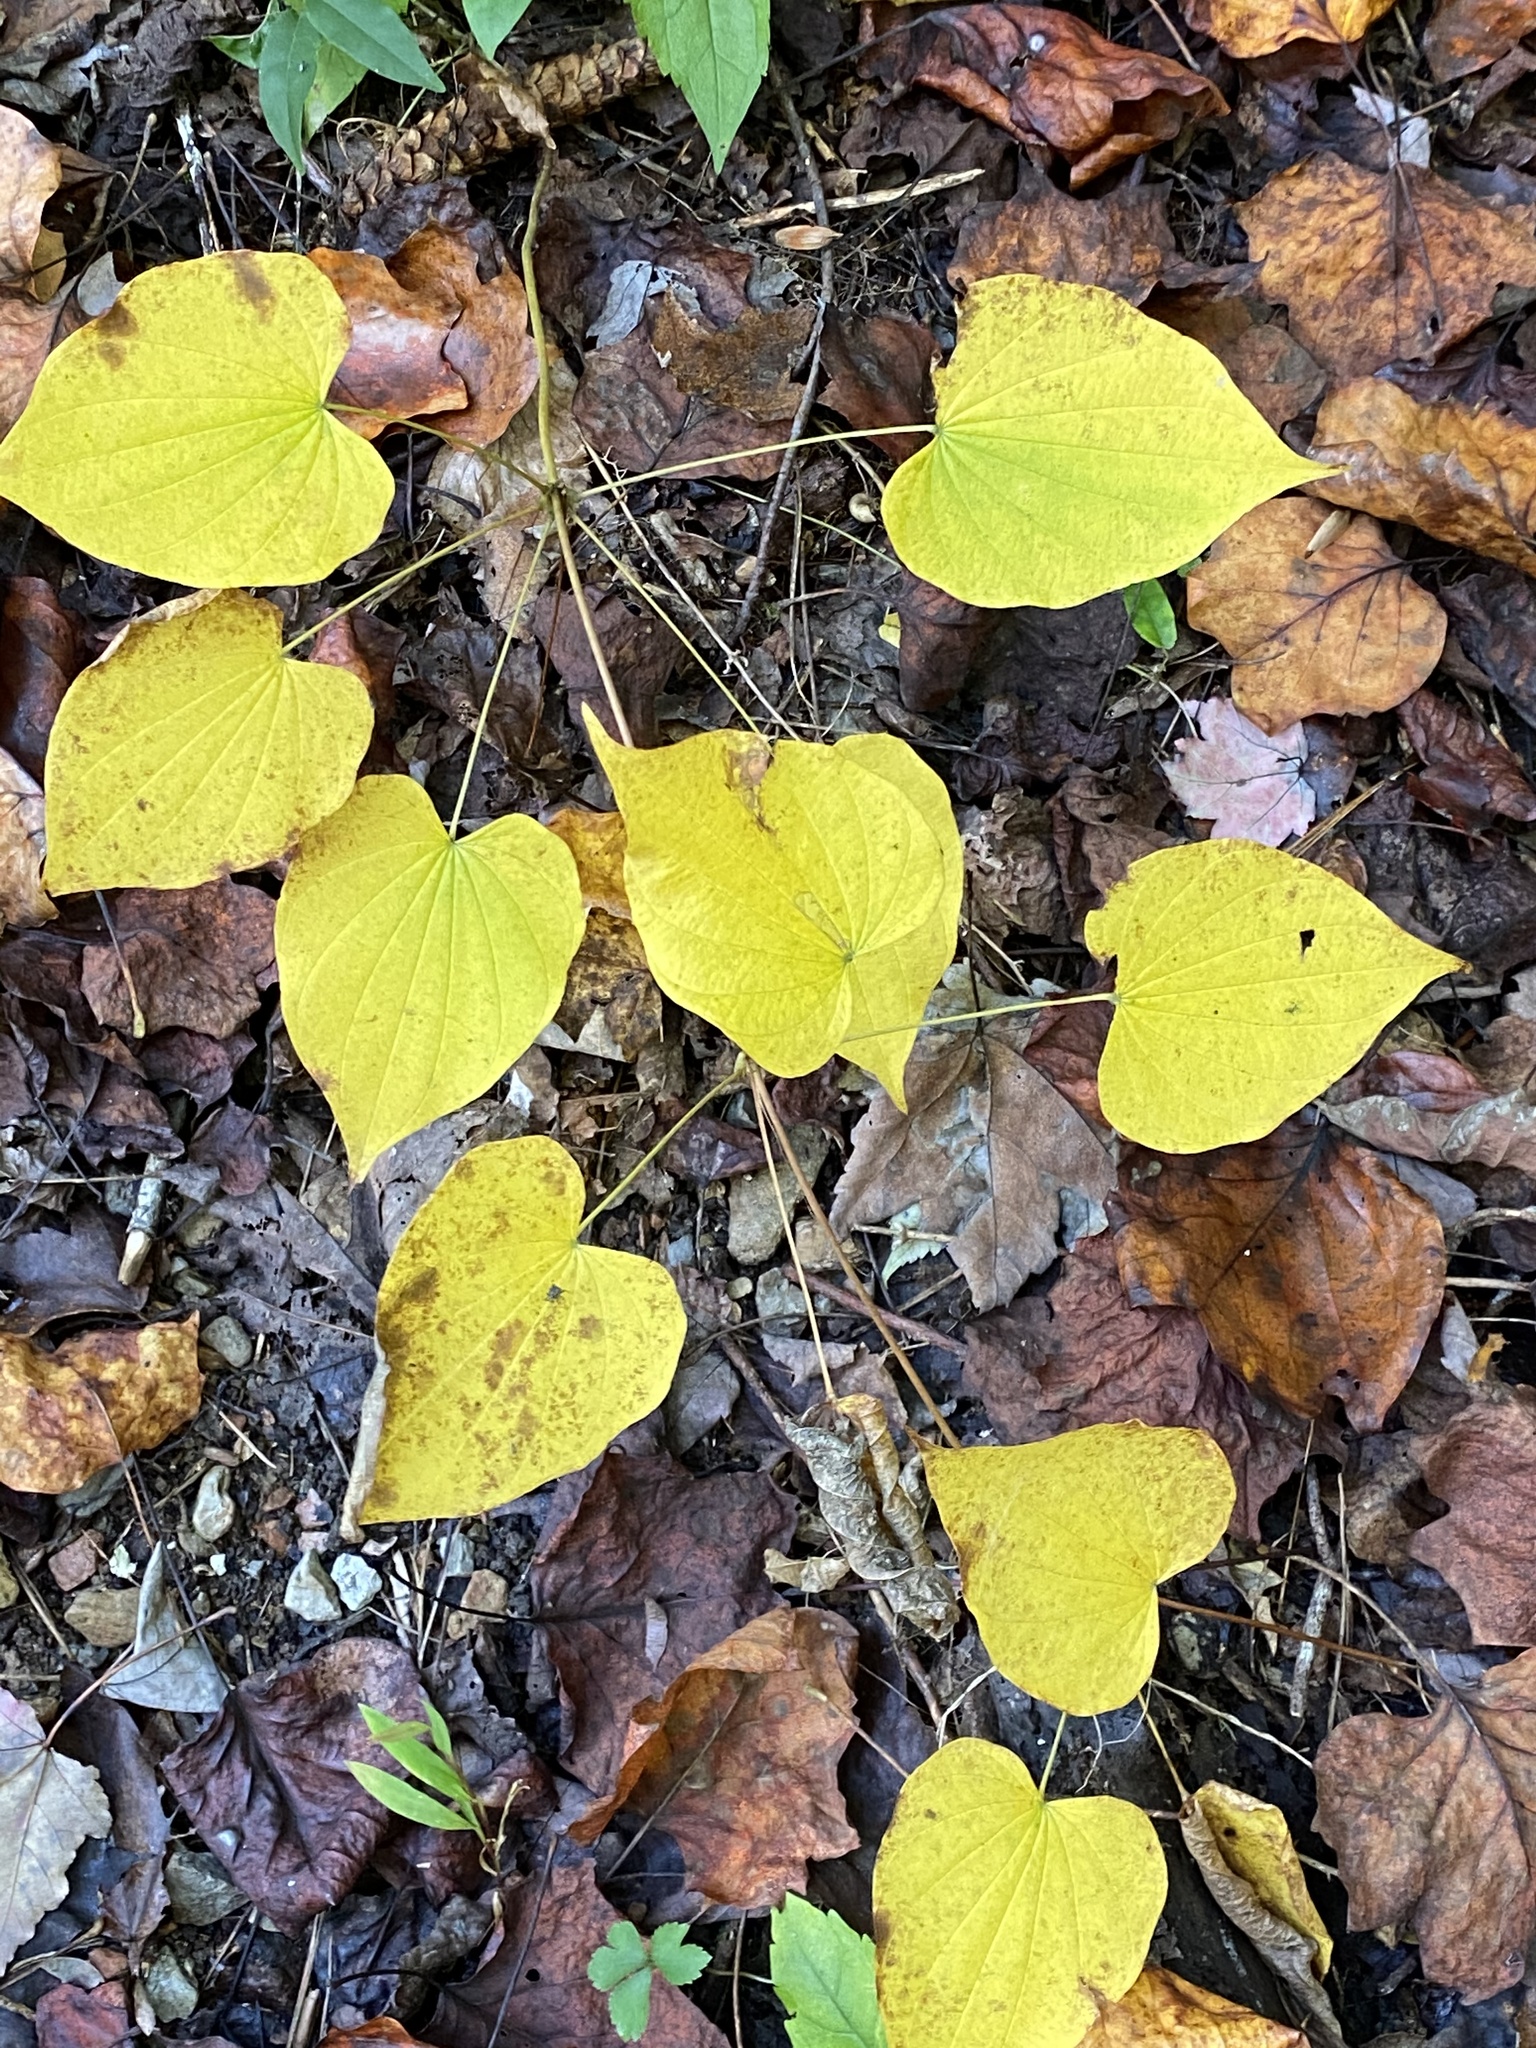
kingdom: Plantae
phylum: Tracheophyta
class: Liliopsida
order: Dioscoreales
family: Dioscoreaceae
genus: Dioscorea
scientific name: Dioscorea villosa
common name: Wild yam
